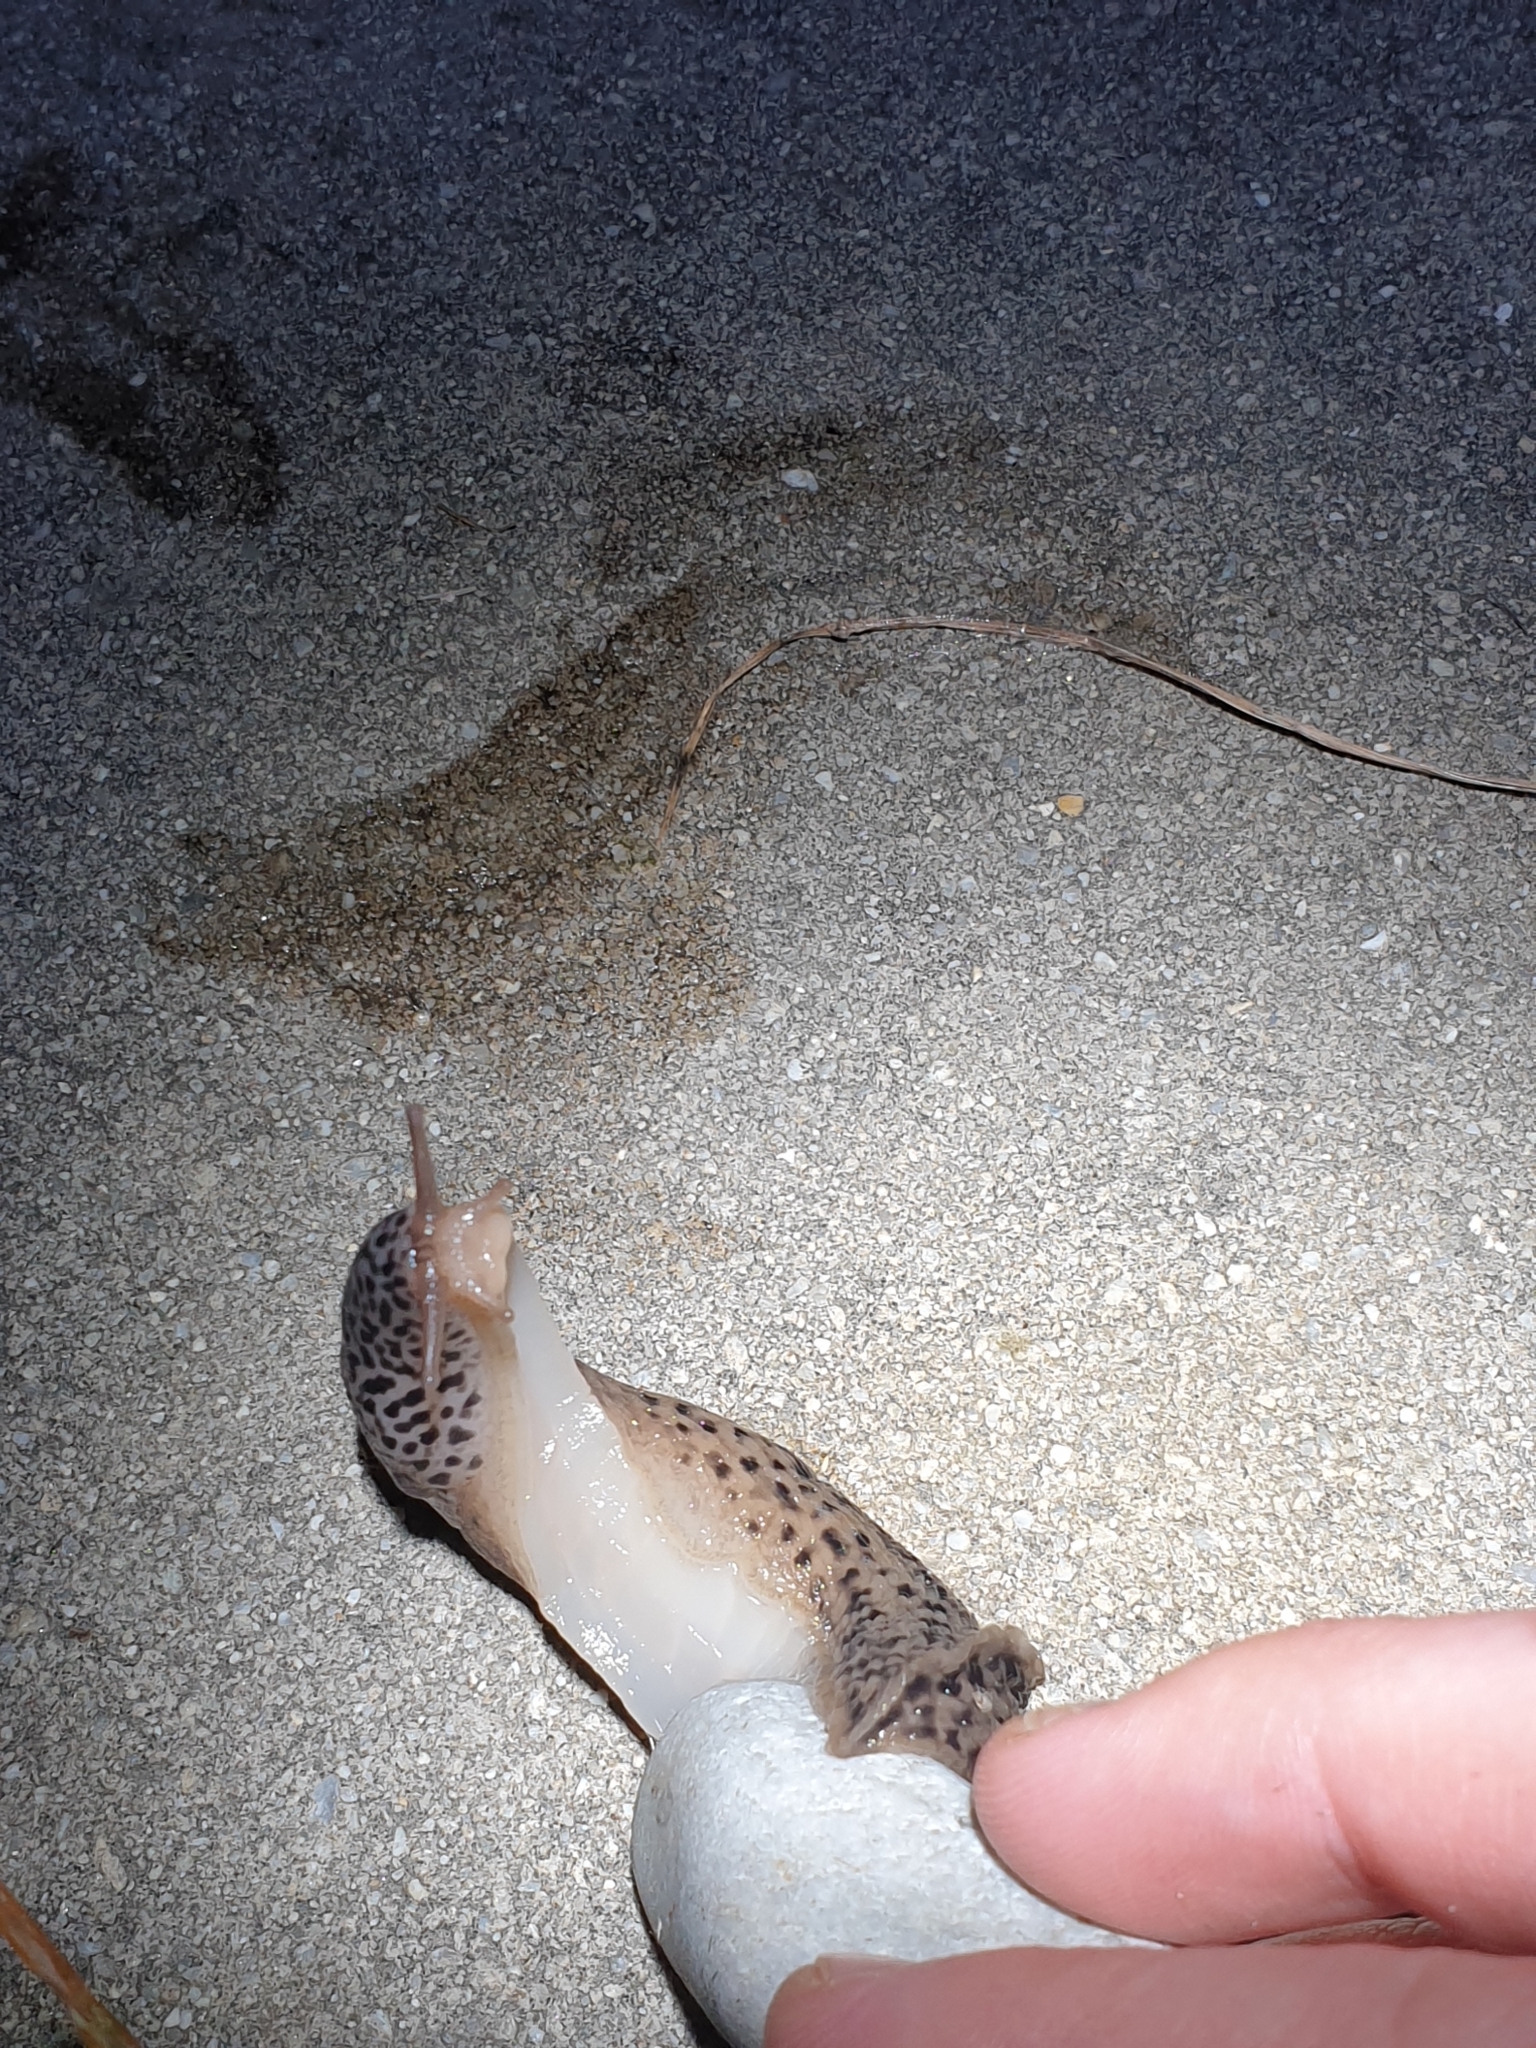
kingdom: Animalia
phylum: Mollusca
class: Gastropoda
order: Stylommatophora
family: Limacidae
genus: Limax
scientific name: Limax maximus
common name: Great grey slug
